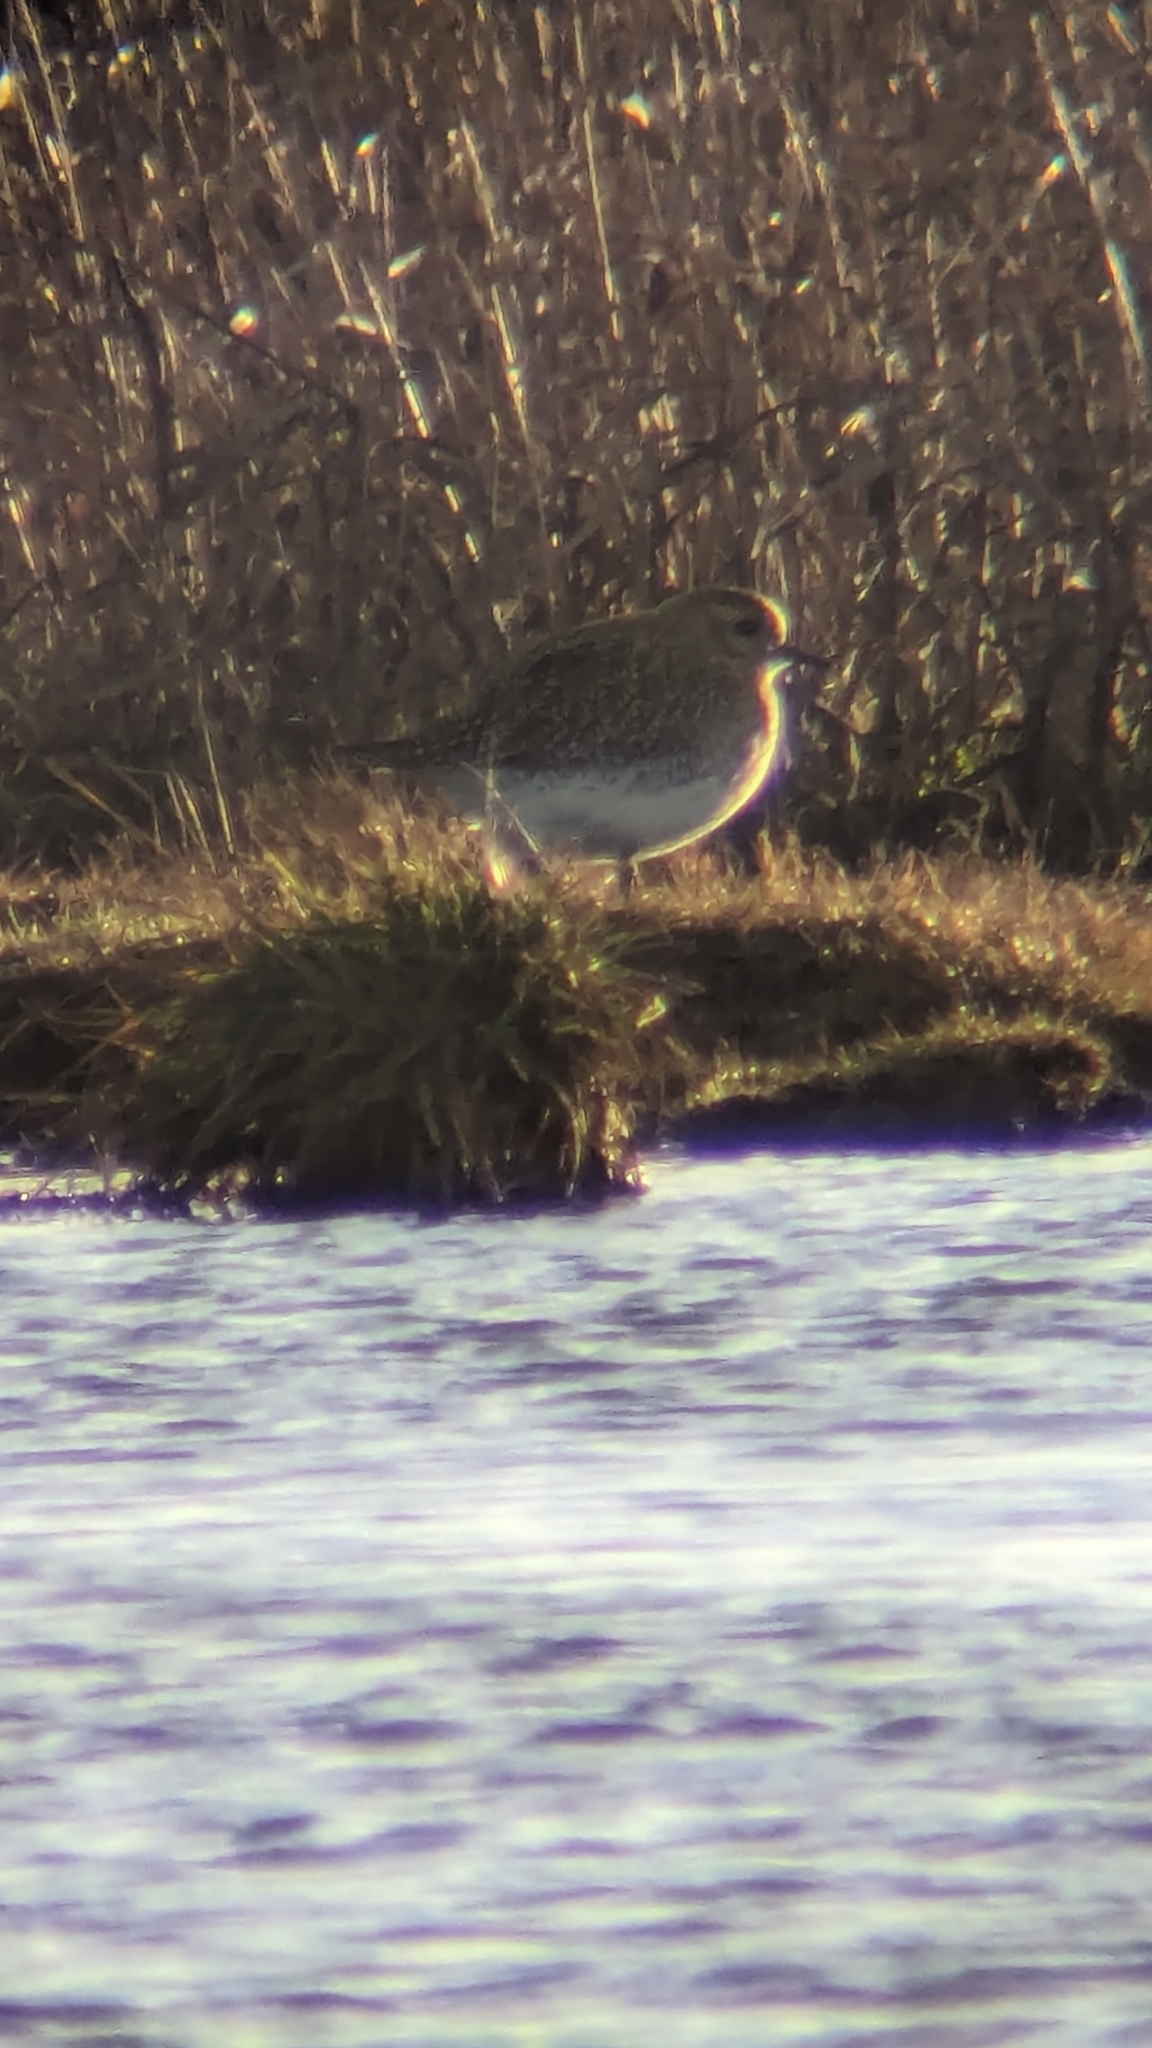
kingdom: Animalia
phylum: Chordata
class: Aves
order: Charadriiformes
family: Charadriidae
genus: Pluvialis
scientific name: Pluvialis apricaria
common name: European golden plover
